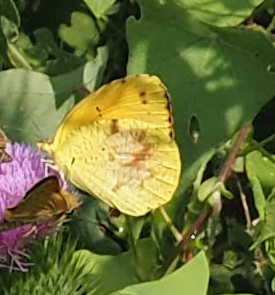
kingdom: Animalia
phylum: Arthropoda
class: Insecta
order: Lepidoptera
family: Pieridae
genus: Abaeis
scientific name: Abaeis nicippe
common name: Sleepy orange
